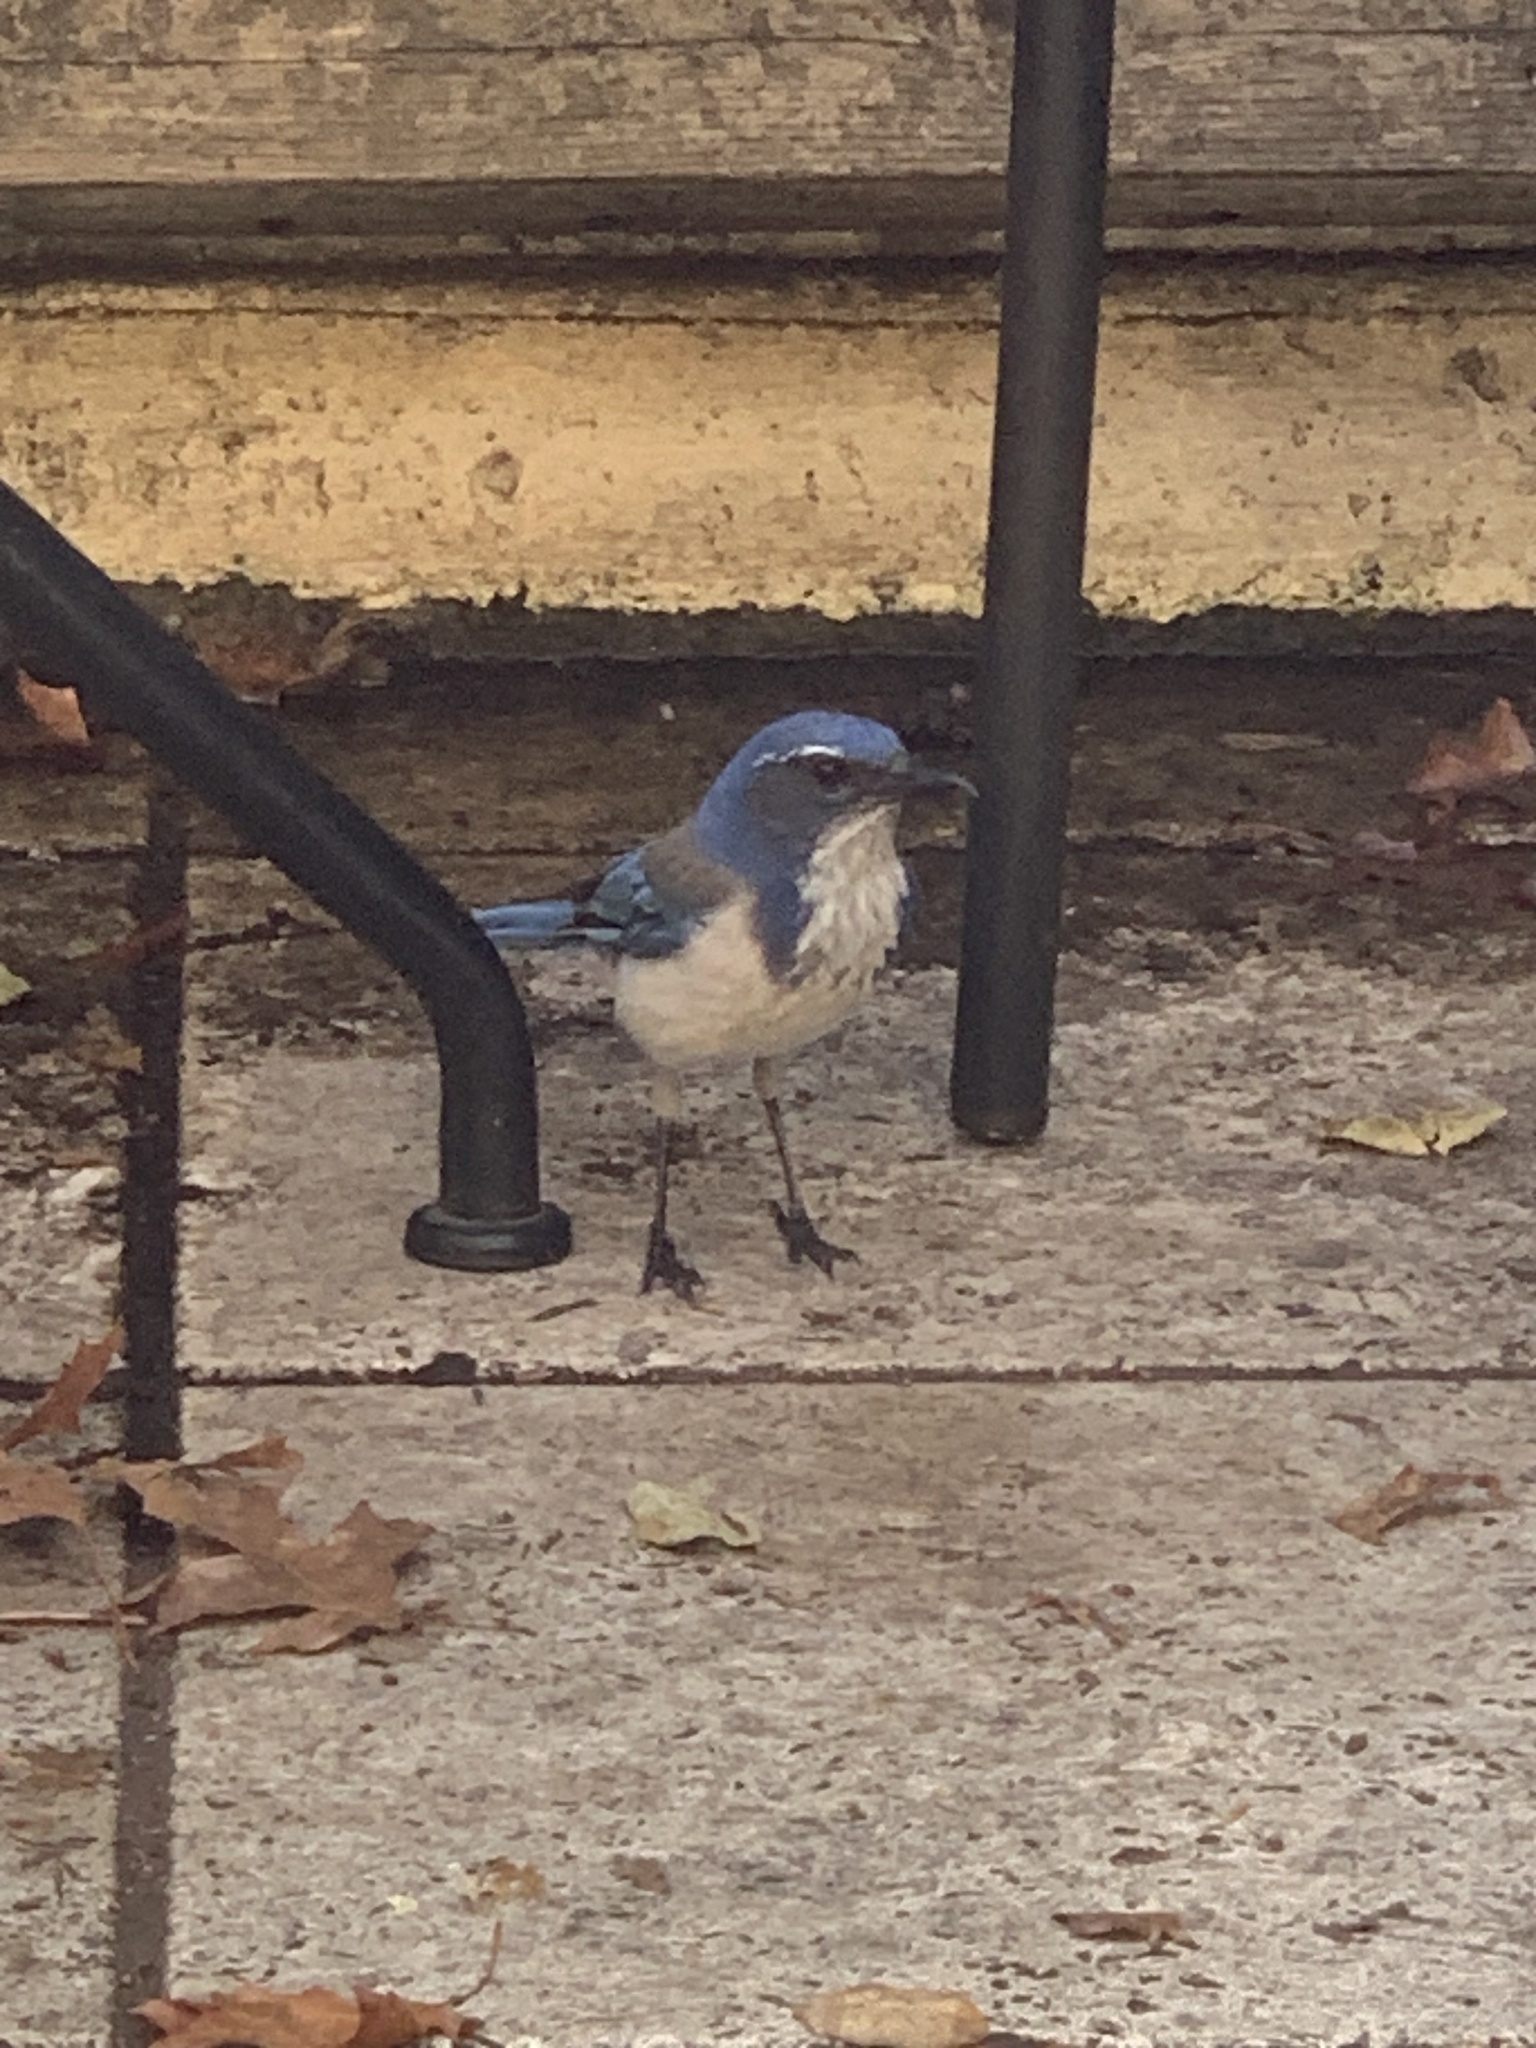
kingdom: Animalia
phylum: Chordata
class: Aves
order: Passeriformes
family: Corvidae
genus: Aphelocoma
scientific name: Aphelocoma californica
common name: California scrub-jay
